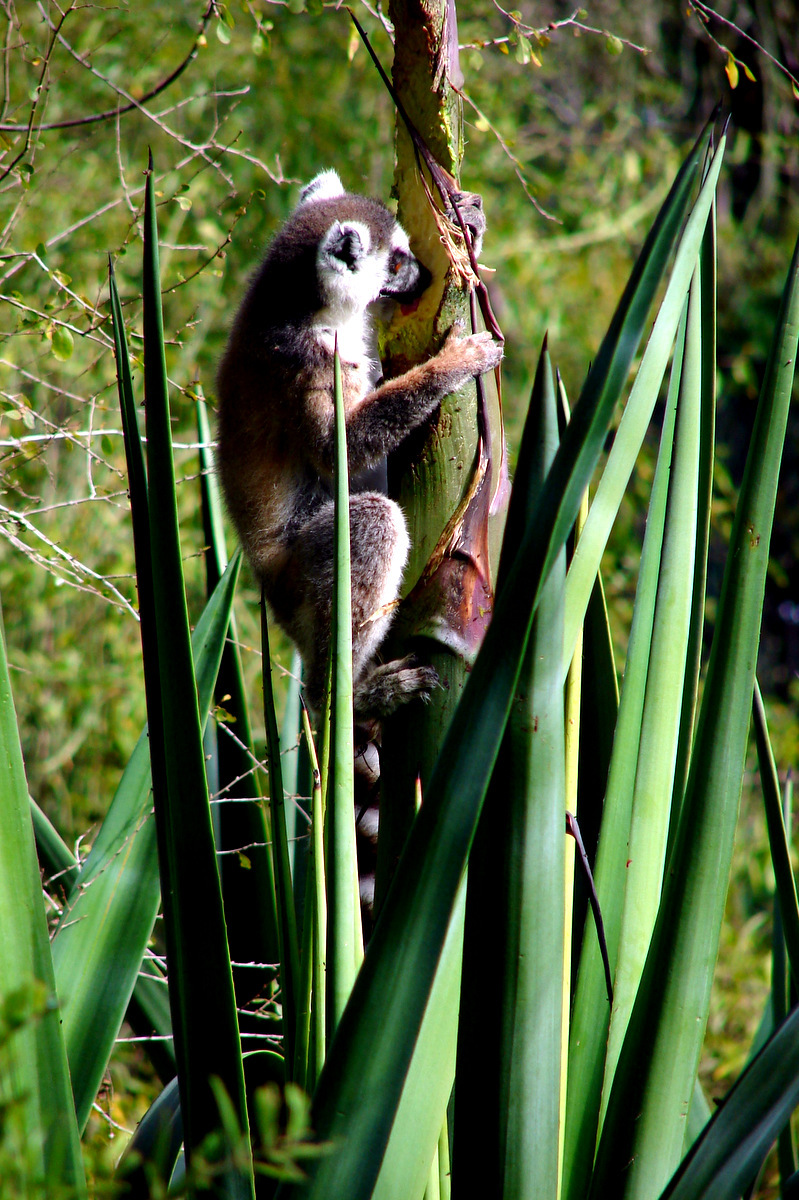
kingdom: Animalia
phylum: Chordata
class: Mammalia
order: Primates
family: Lemuridae
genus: Lemur
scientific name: Lemur catta
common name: Ring-tailed lemur
